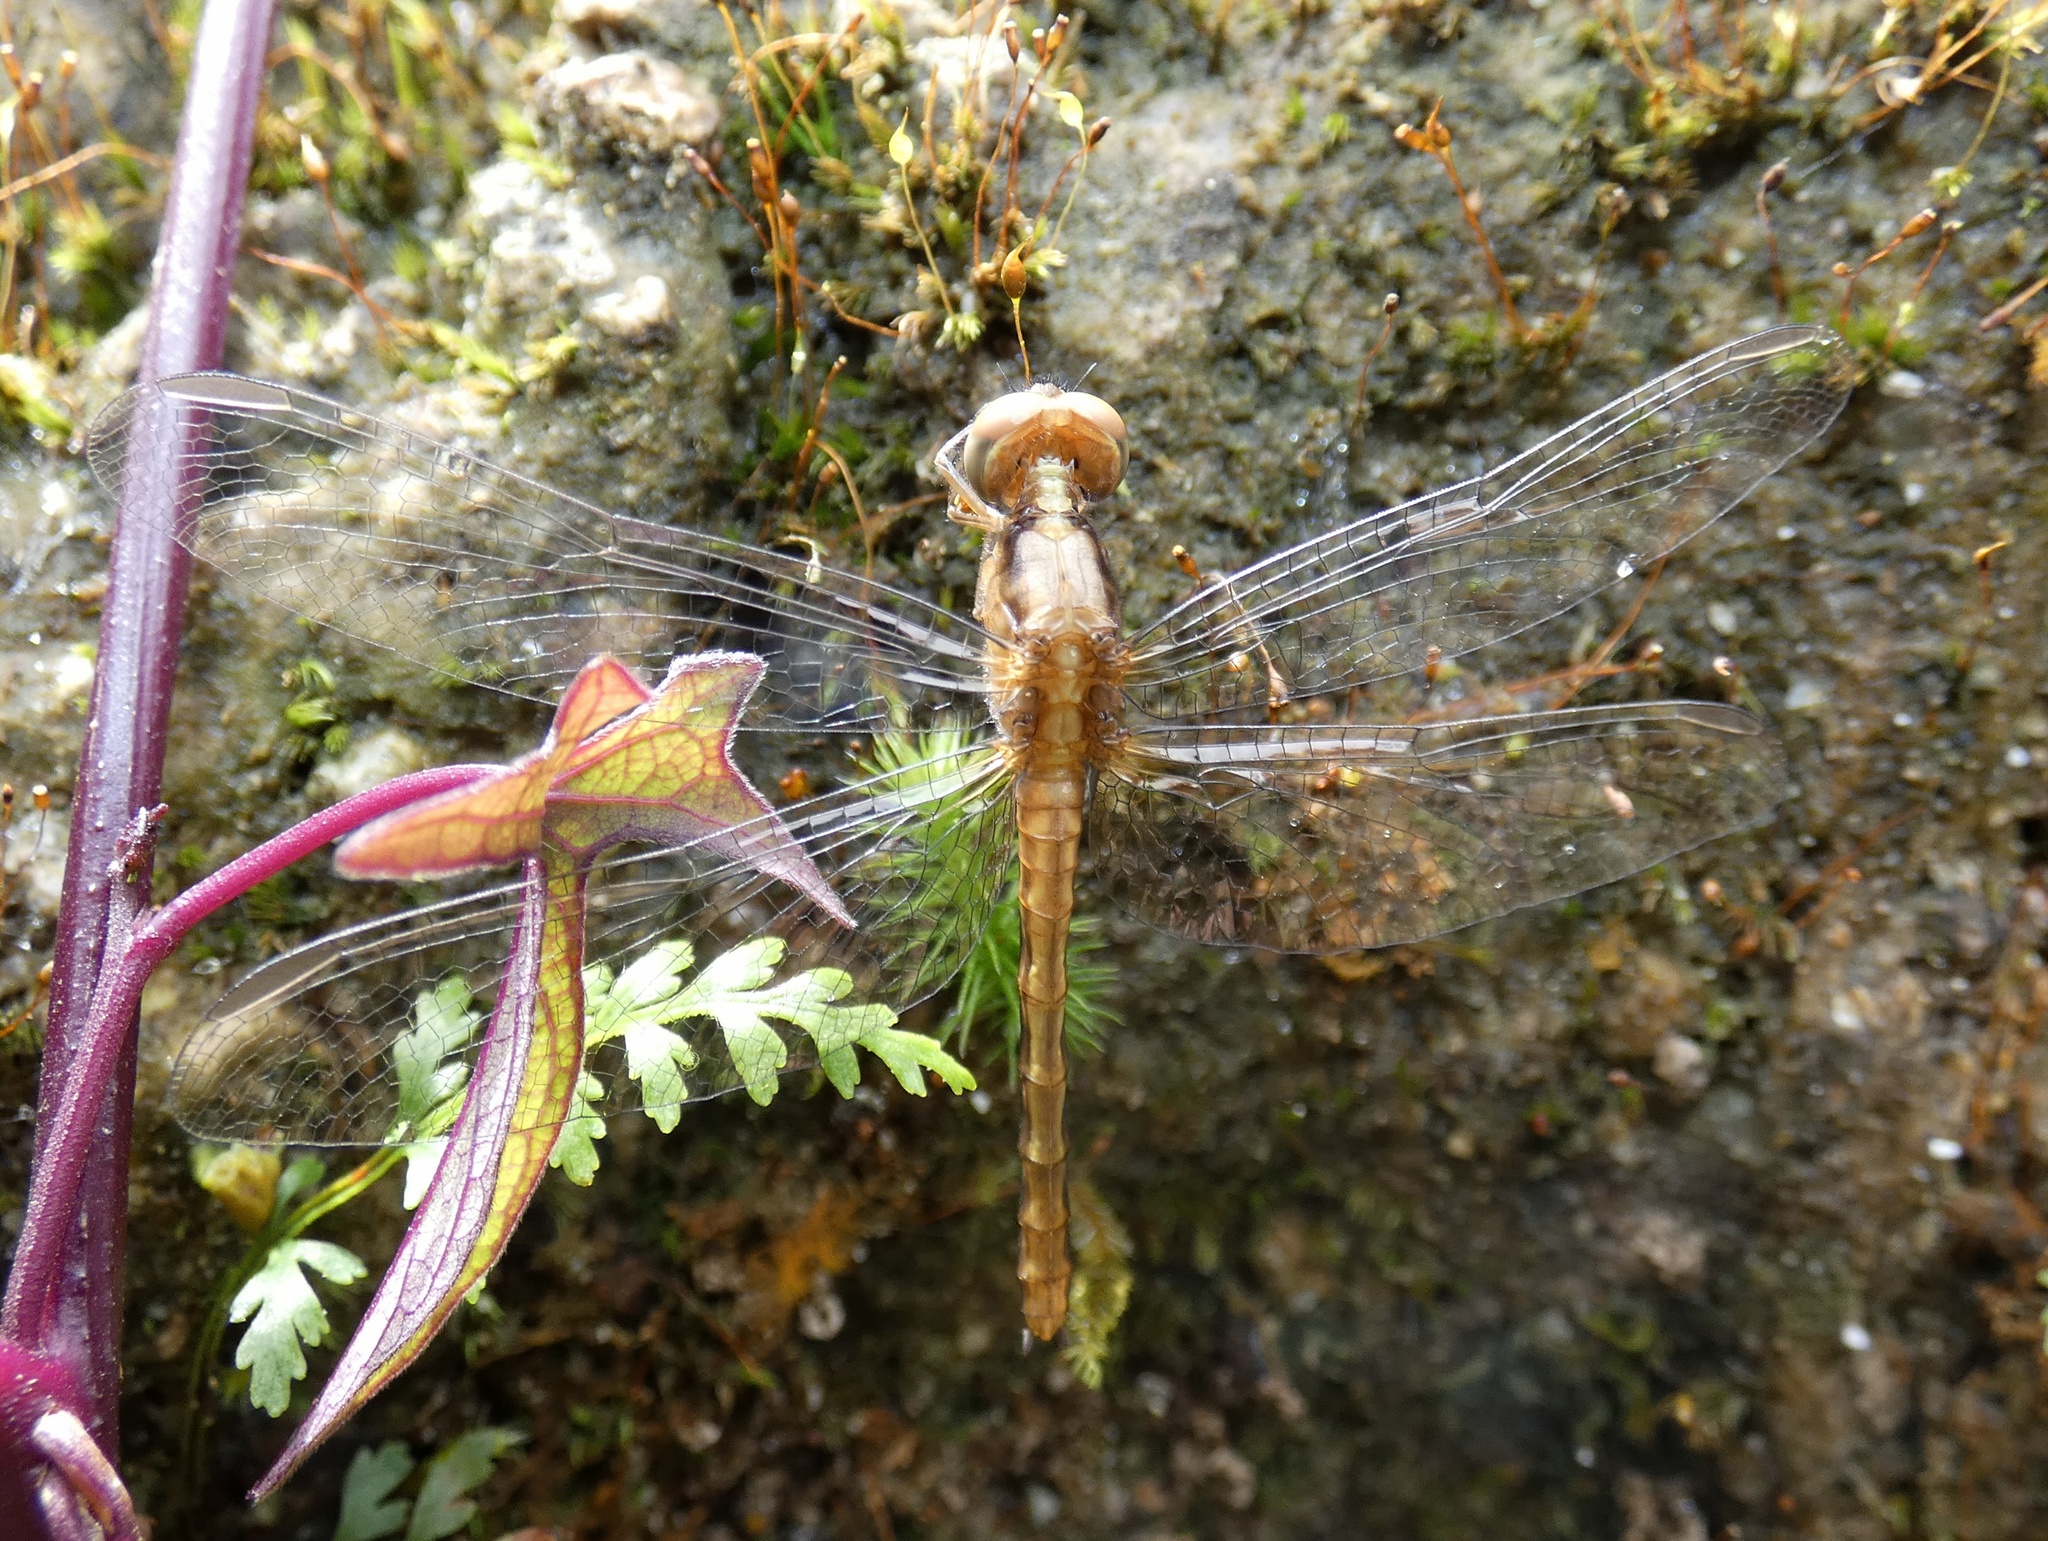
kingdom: Animalia
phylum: Arthropoda
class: Insecta
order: Odonata
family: Libellulidae
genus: Erythrodiplax
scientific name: Erythrodiplax fusca
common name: Red-faced dragonlet
